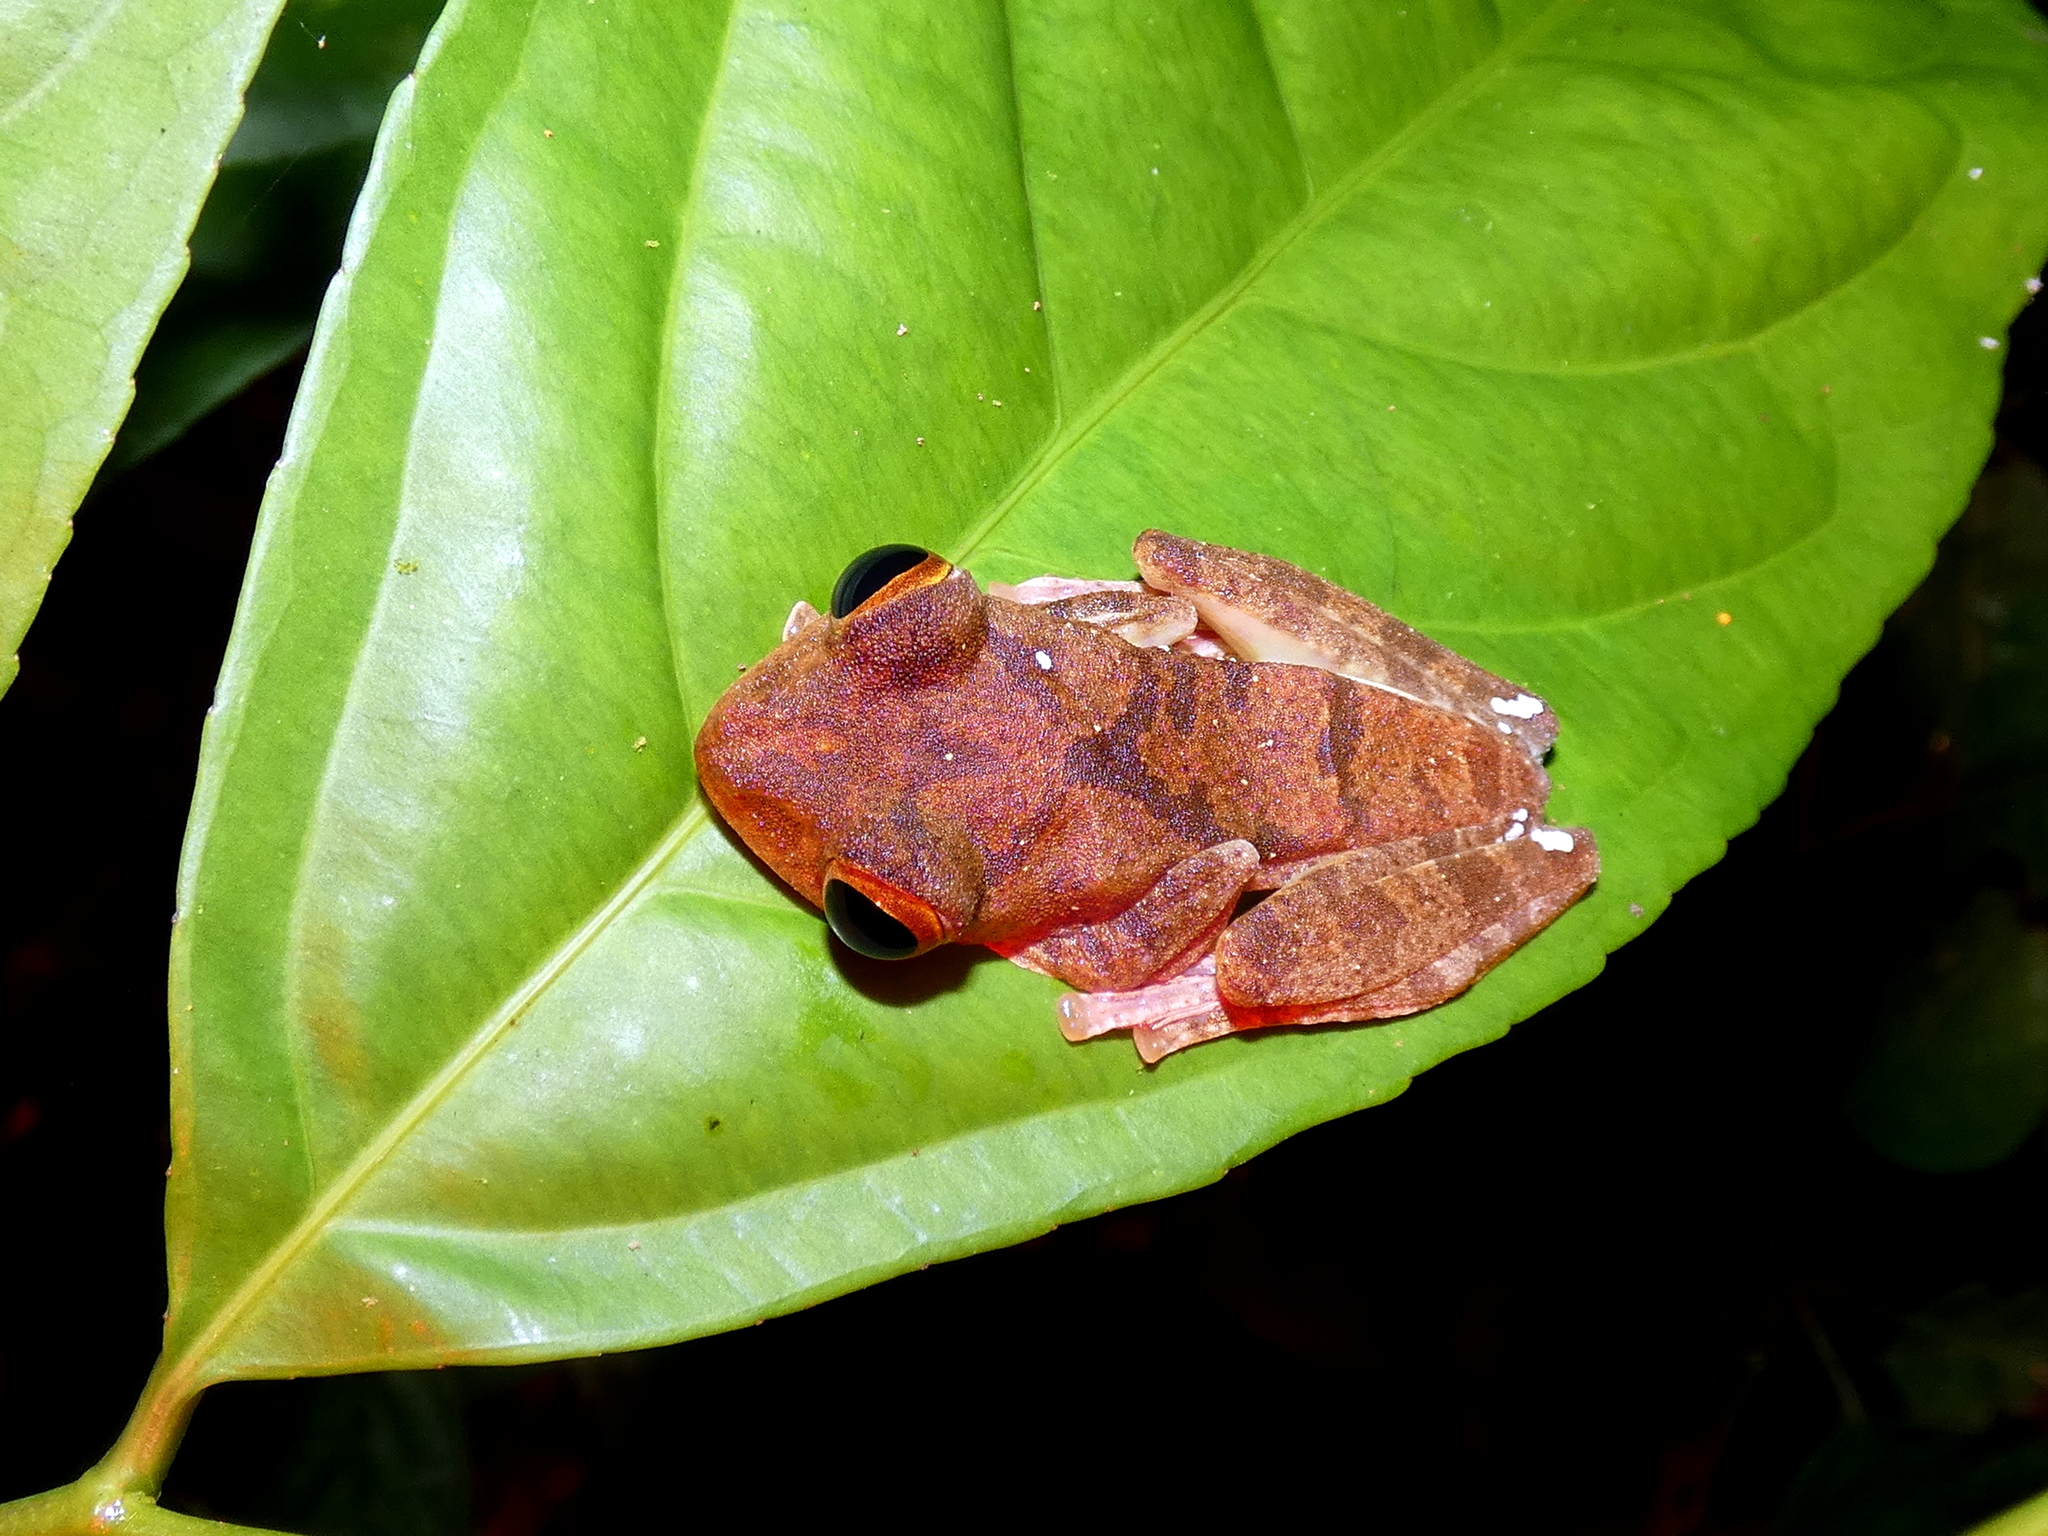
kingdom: Animalia
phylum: Chordata
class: Amphibia
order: Anura
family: Rhacophoridae
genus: Rhacophorus
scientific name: Rhacophorus pardalis
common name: Harlequin tree frog
